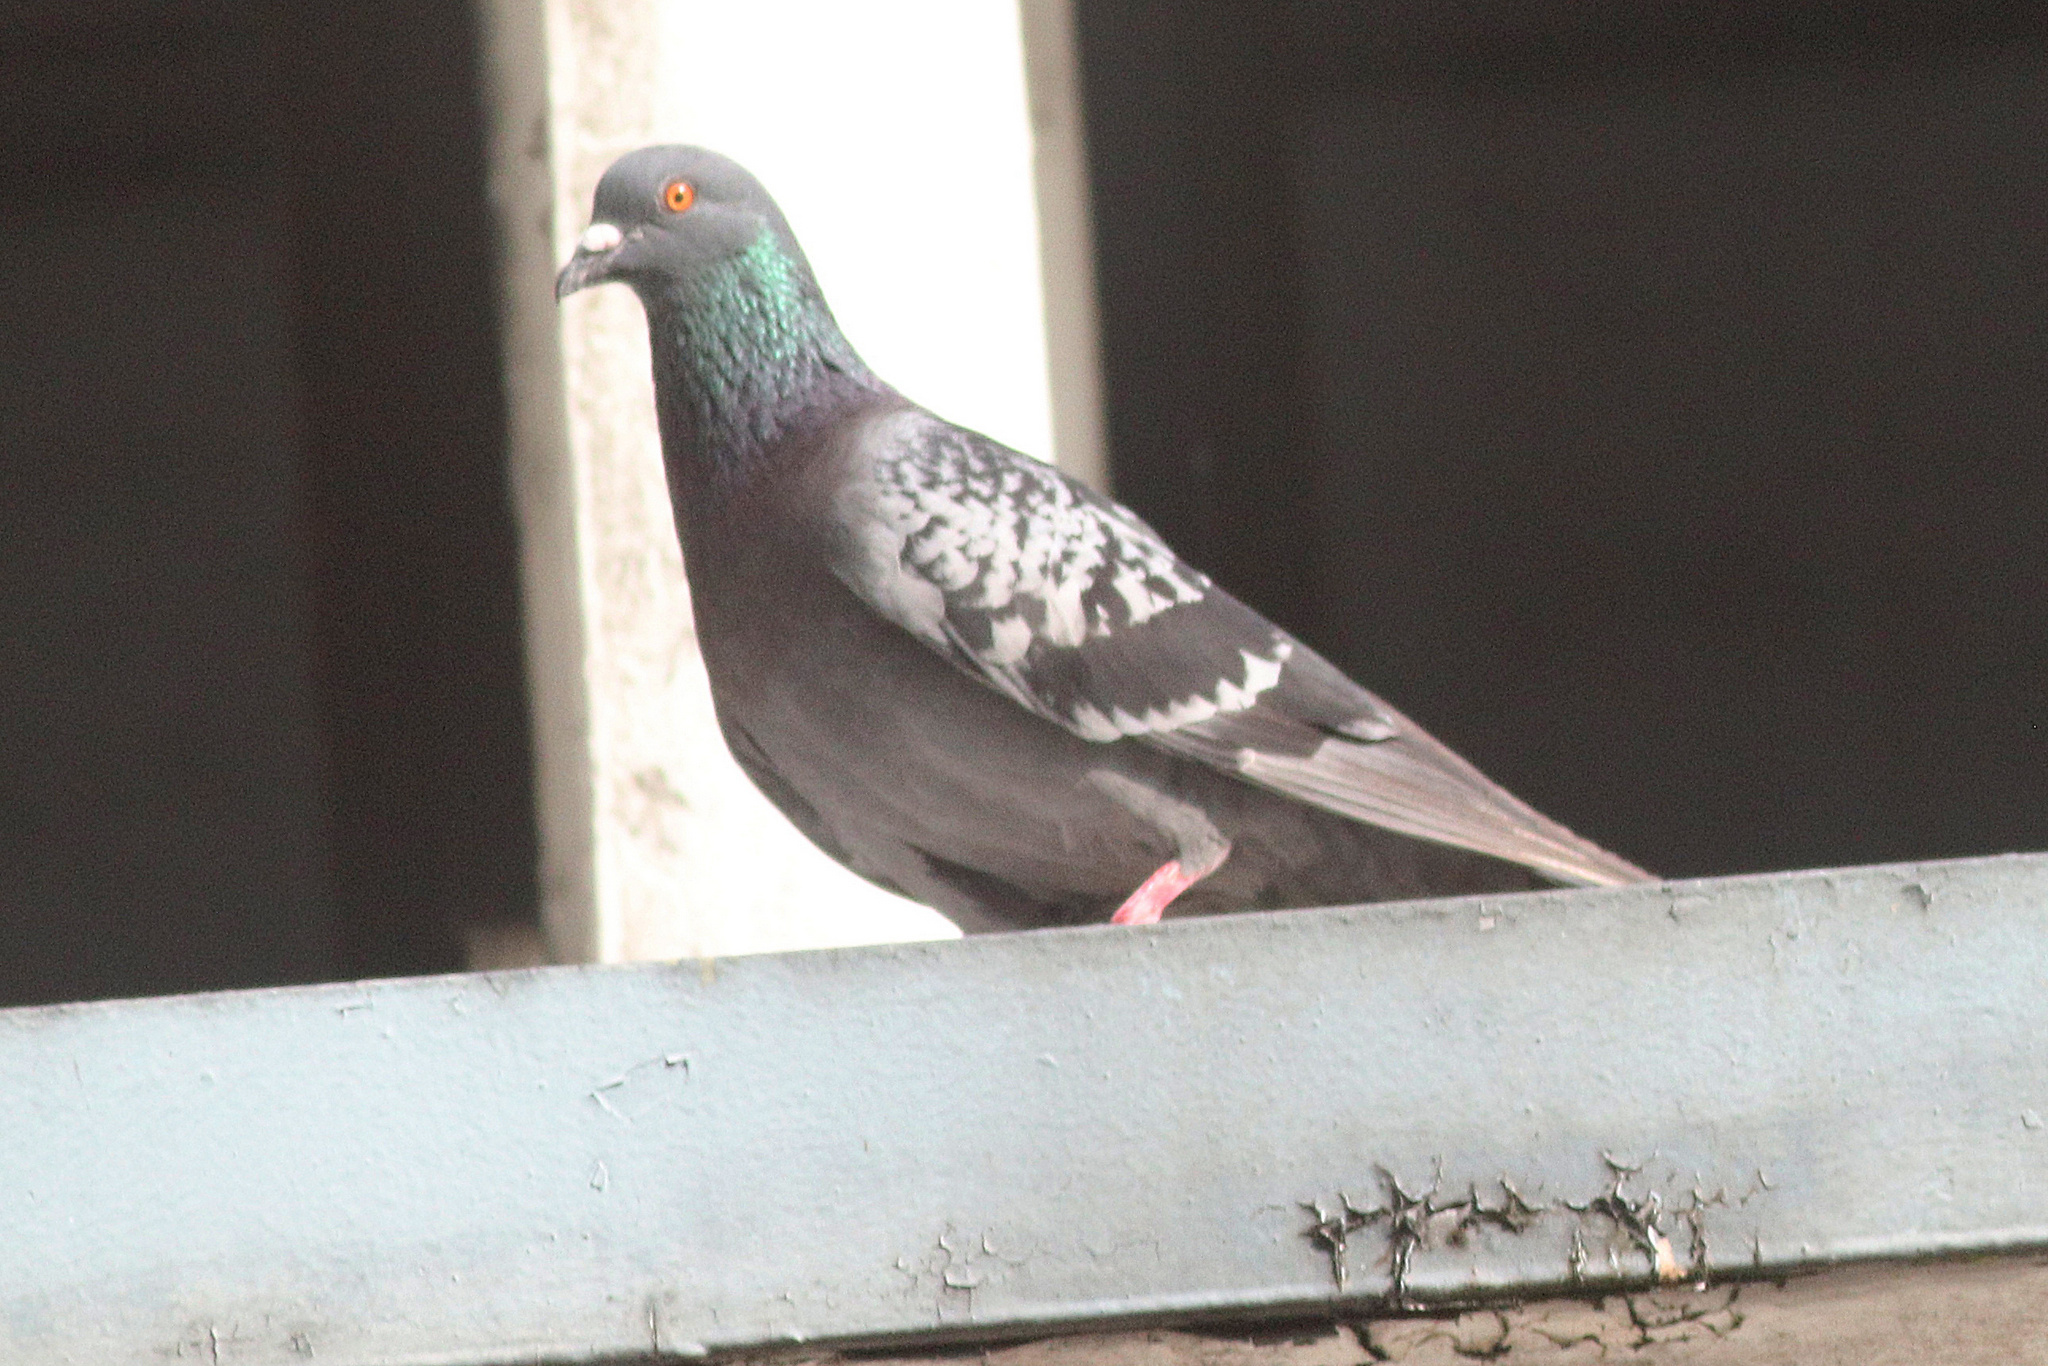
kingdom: Animalia
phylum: Chordata
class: Aves
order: Columbiformes
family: Columbidae
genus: Columba
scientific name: Columba livia
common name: Rock pigeon
